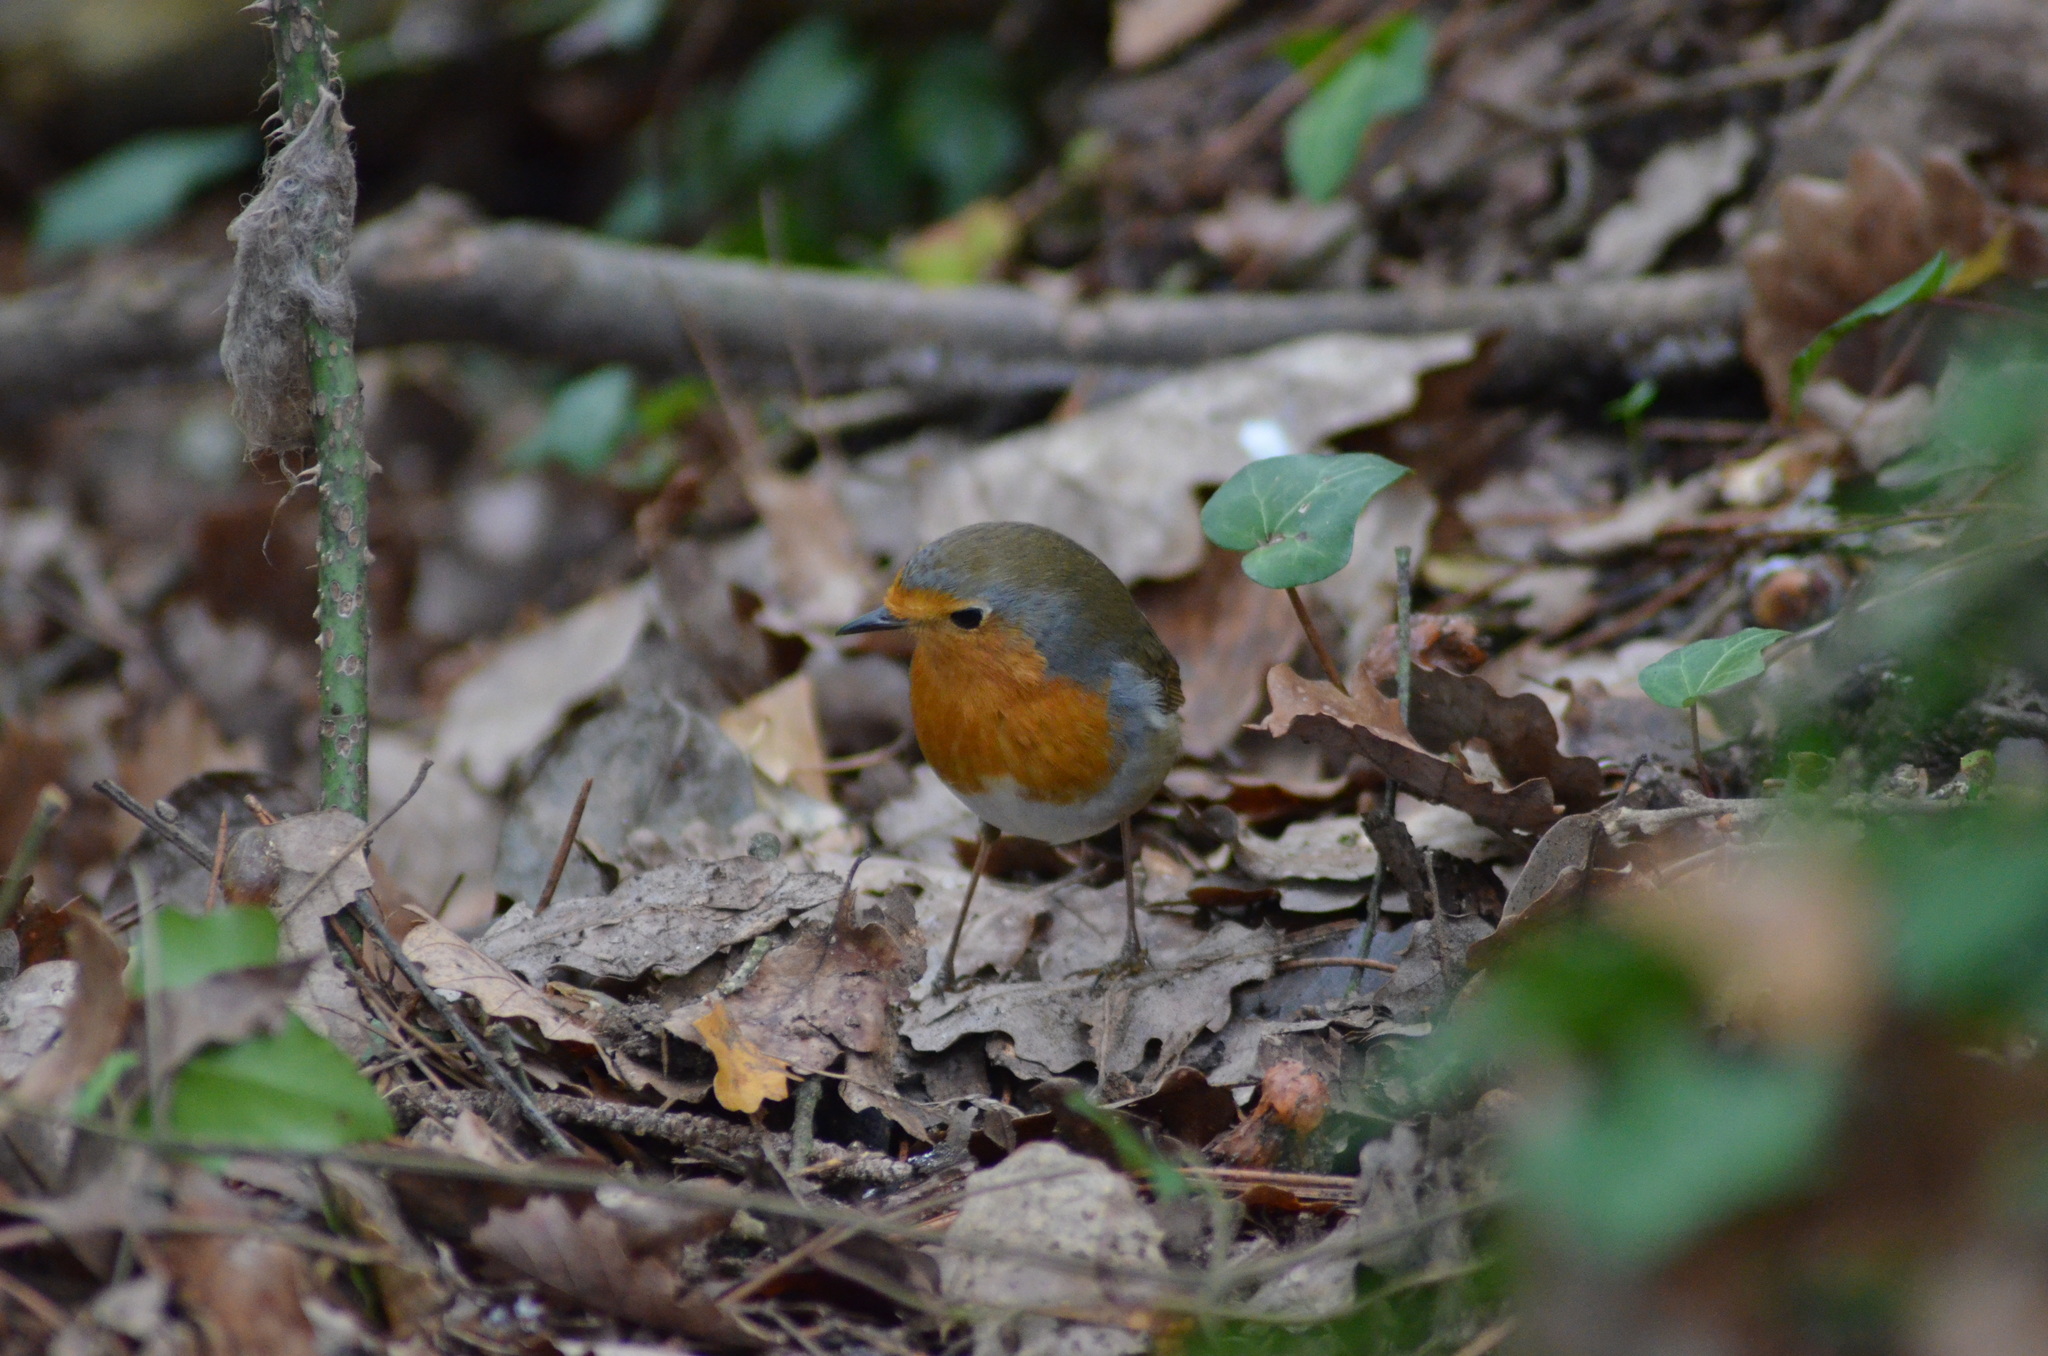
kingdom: Animalia
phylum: Chordata
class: Aves
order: Passeriformes
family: Muscicapidae
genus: Erithacus
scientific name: Erithacus rubecula
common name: European robin
